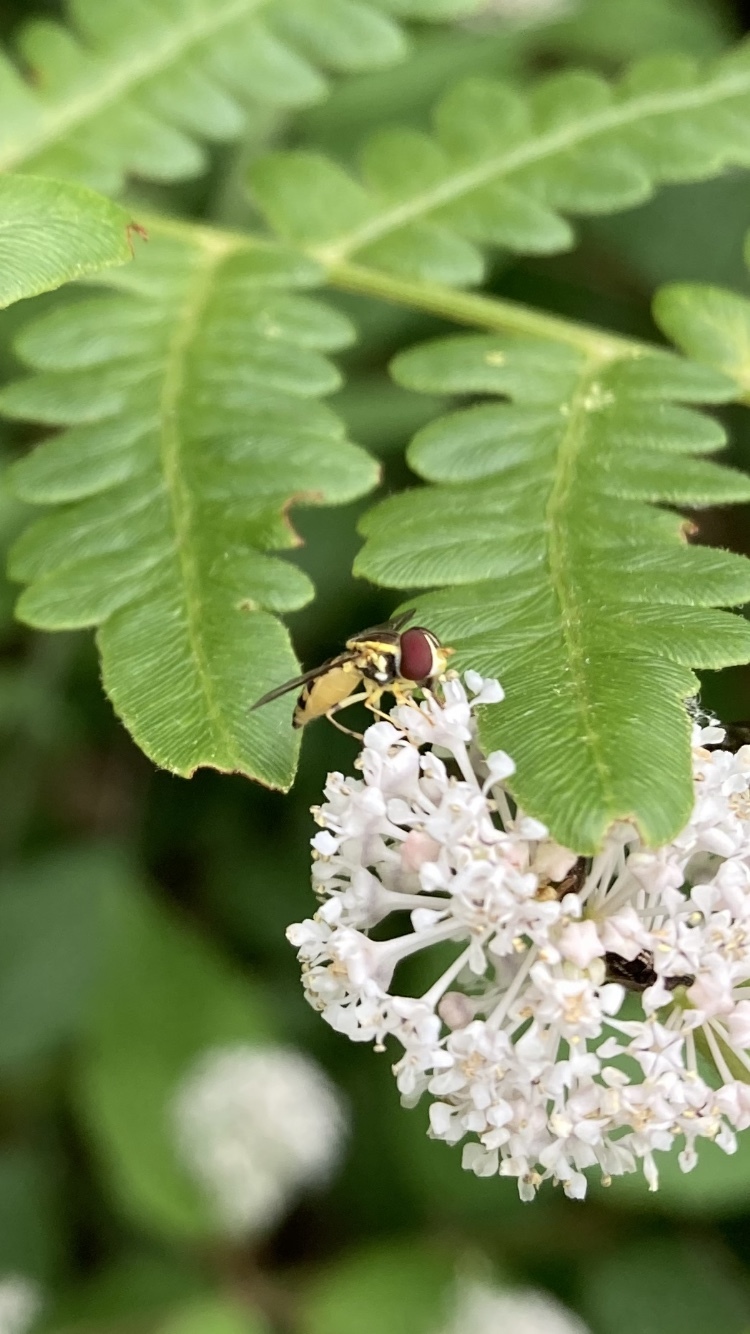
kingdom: Animalia
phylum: Arthropoda
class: Insecta
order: Diptera
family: Syrphidae
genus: Toxomerus
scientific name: Toxomerus geminatus
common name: Eastern calligrapher
